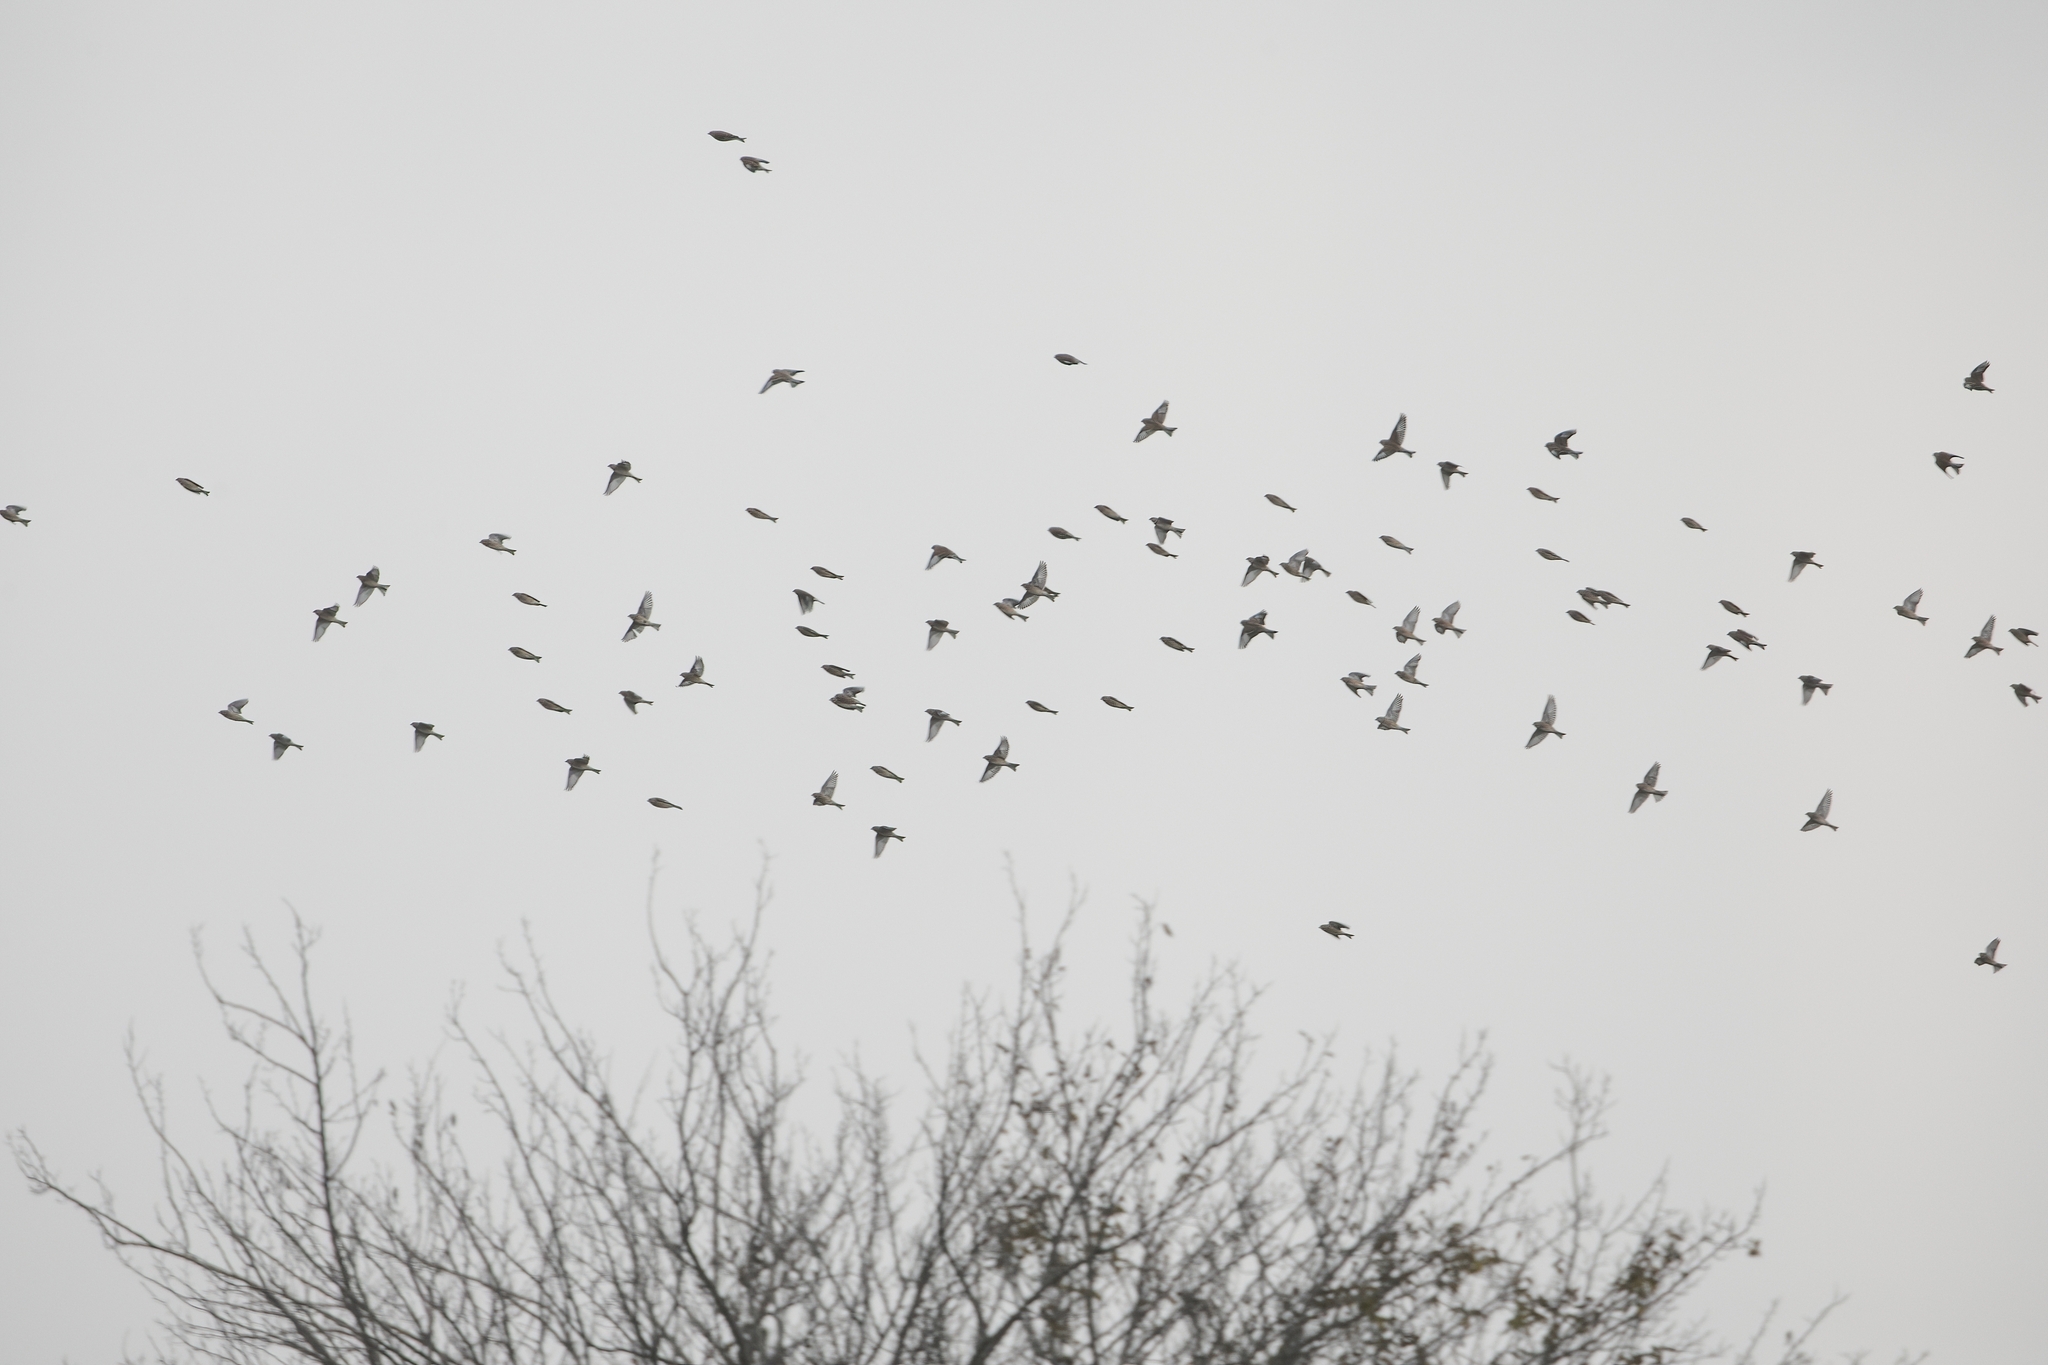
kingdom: Animalia
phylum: Chordata
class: Aves
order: Passeriformes
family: Fringillidae
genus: Linaria
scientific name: Linaria cannabina
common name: Common linnet
